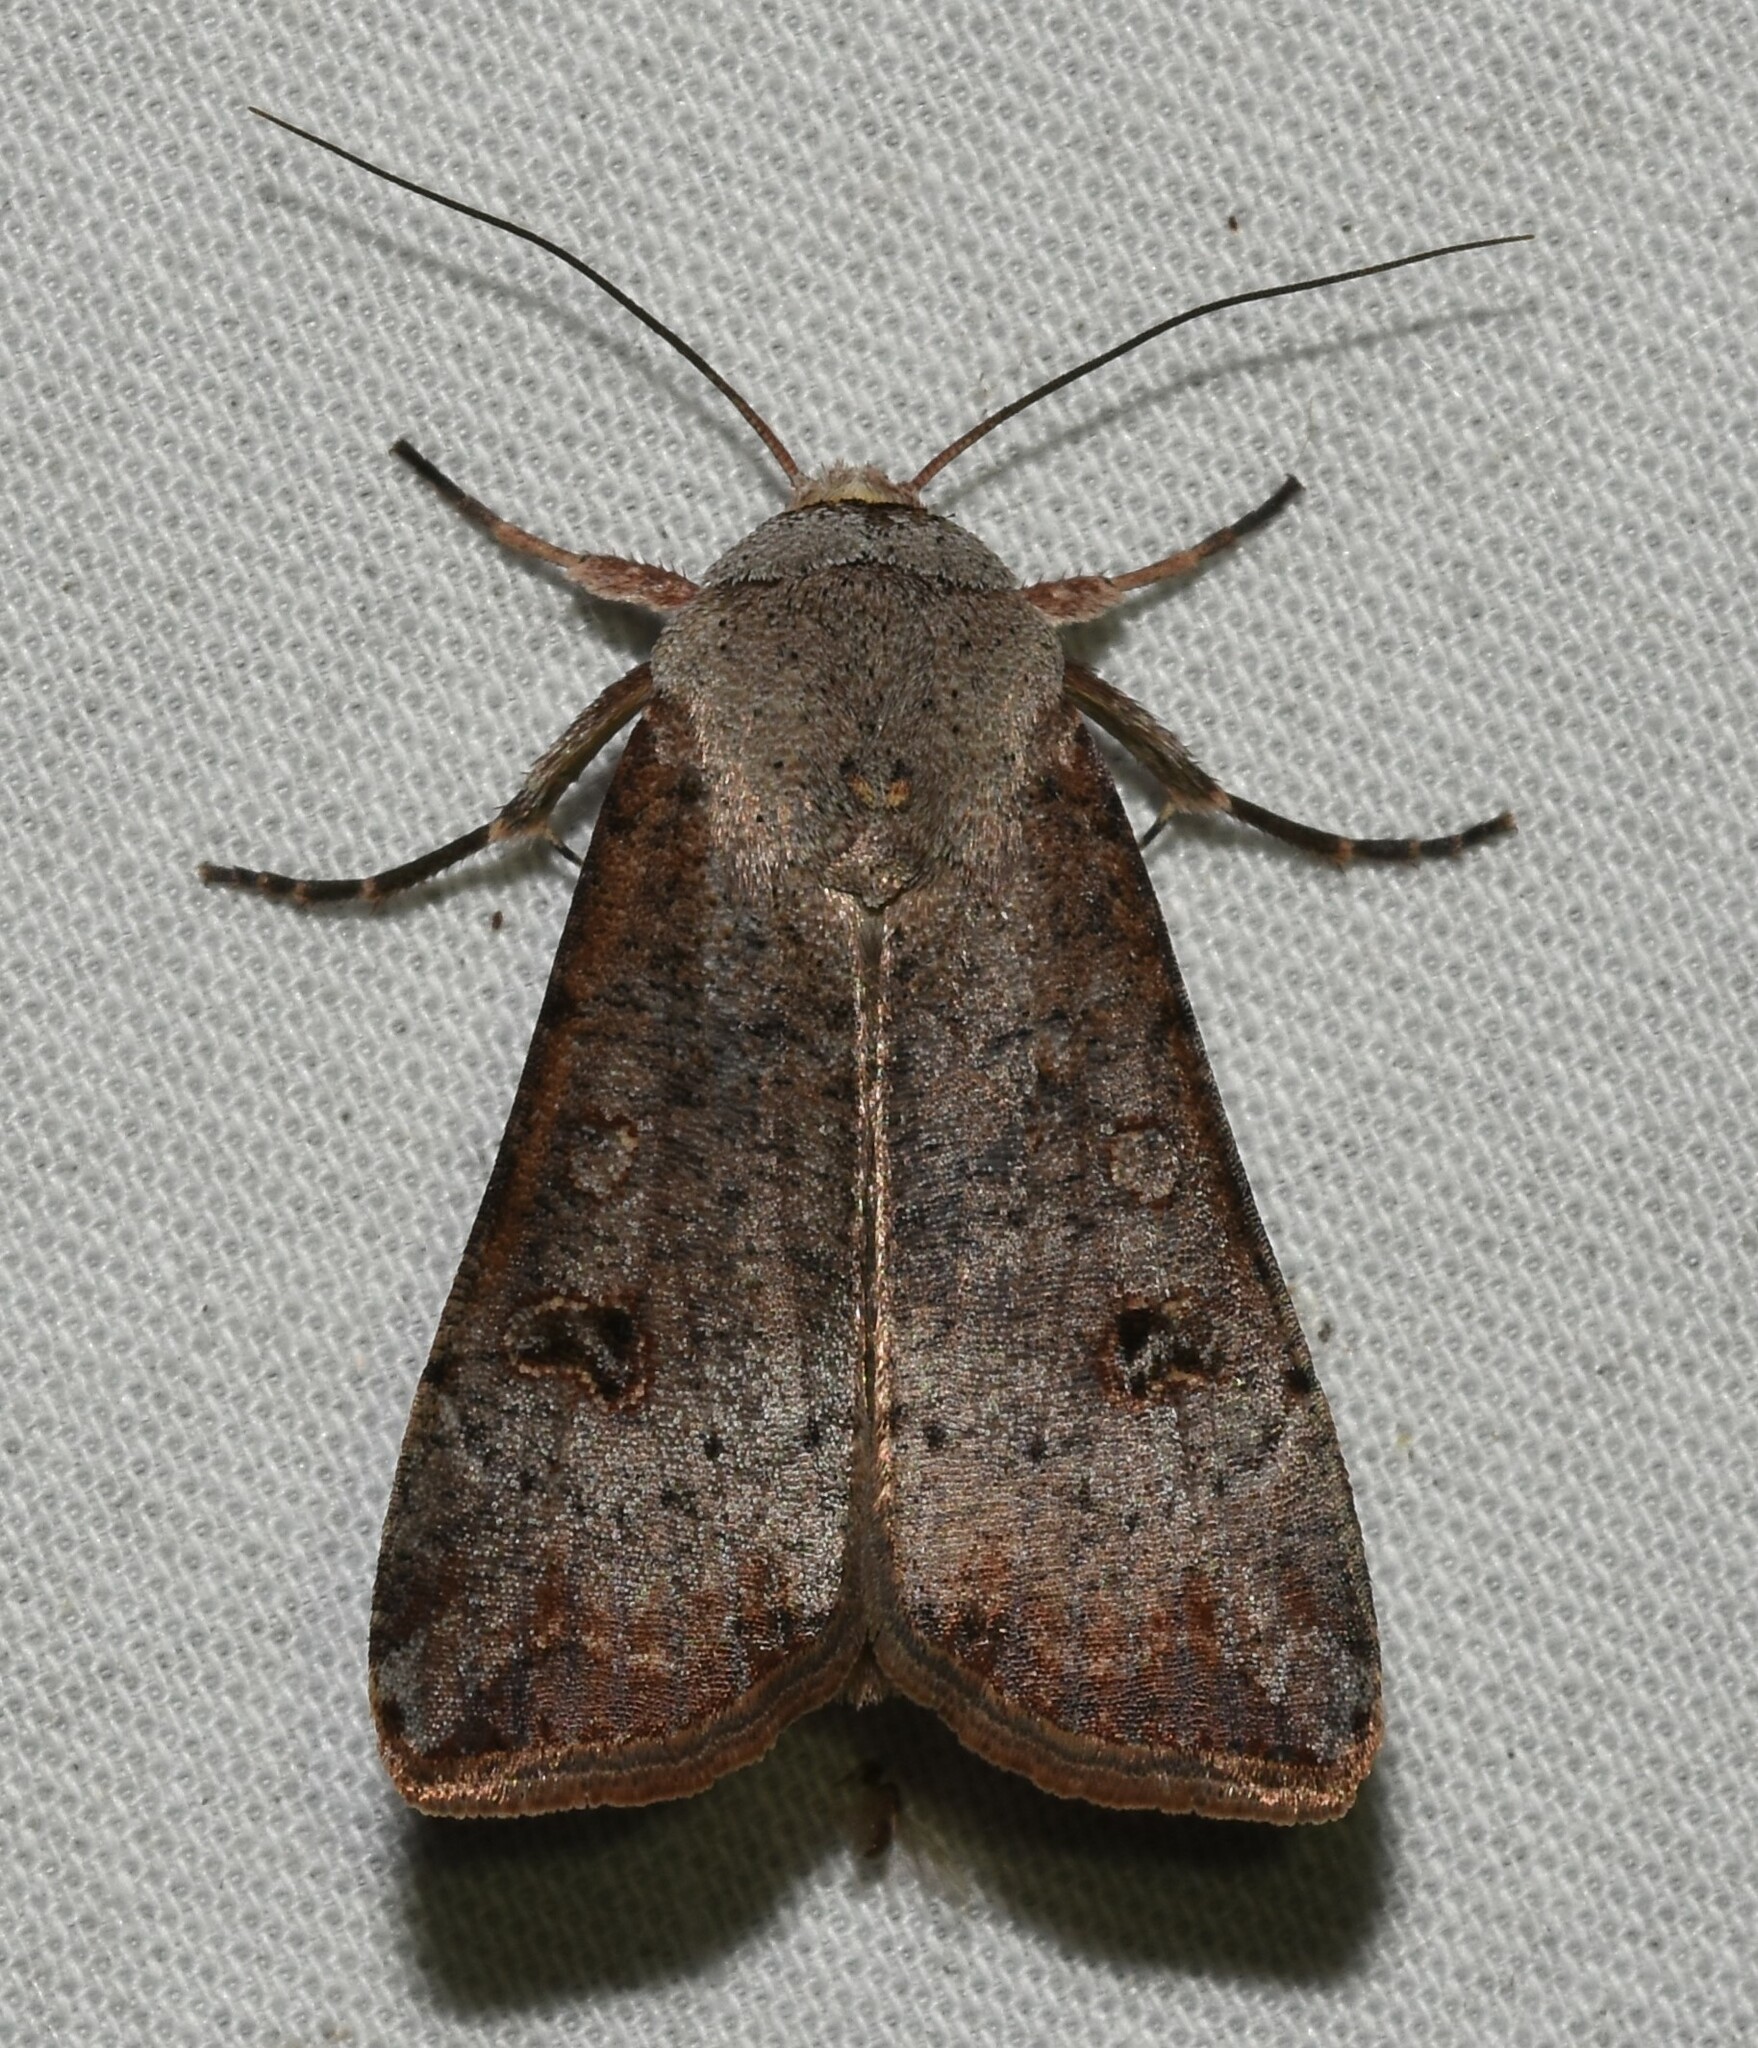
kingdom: Animalia
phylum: Arthropoda
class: Insecta
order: Lepidoptera
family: Noctuidae
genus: Anicla
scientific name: Anicla infecta
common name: Green cutworm
